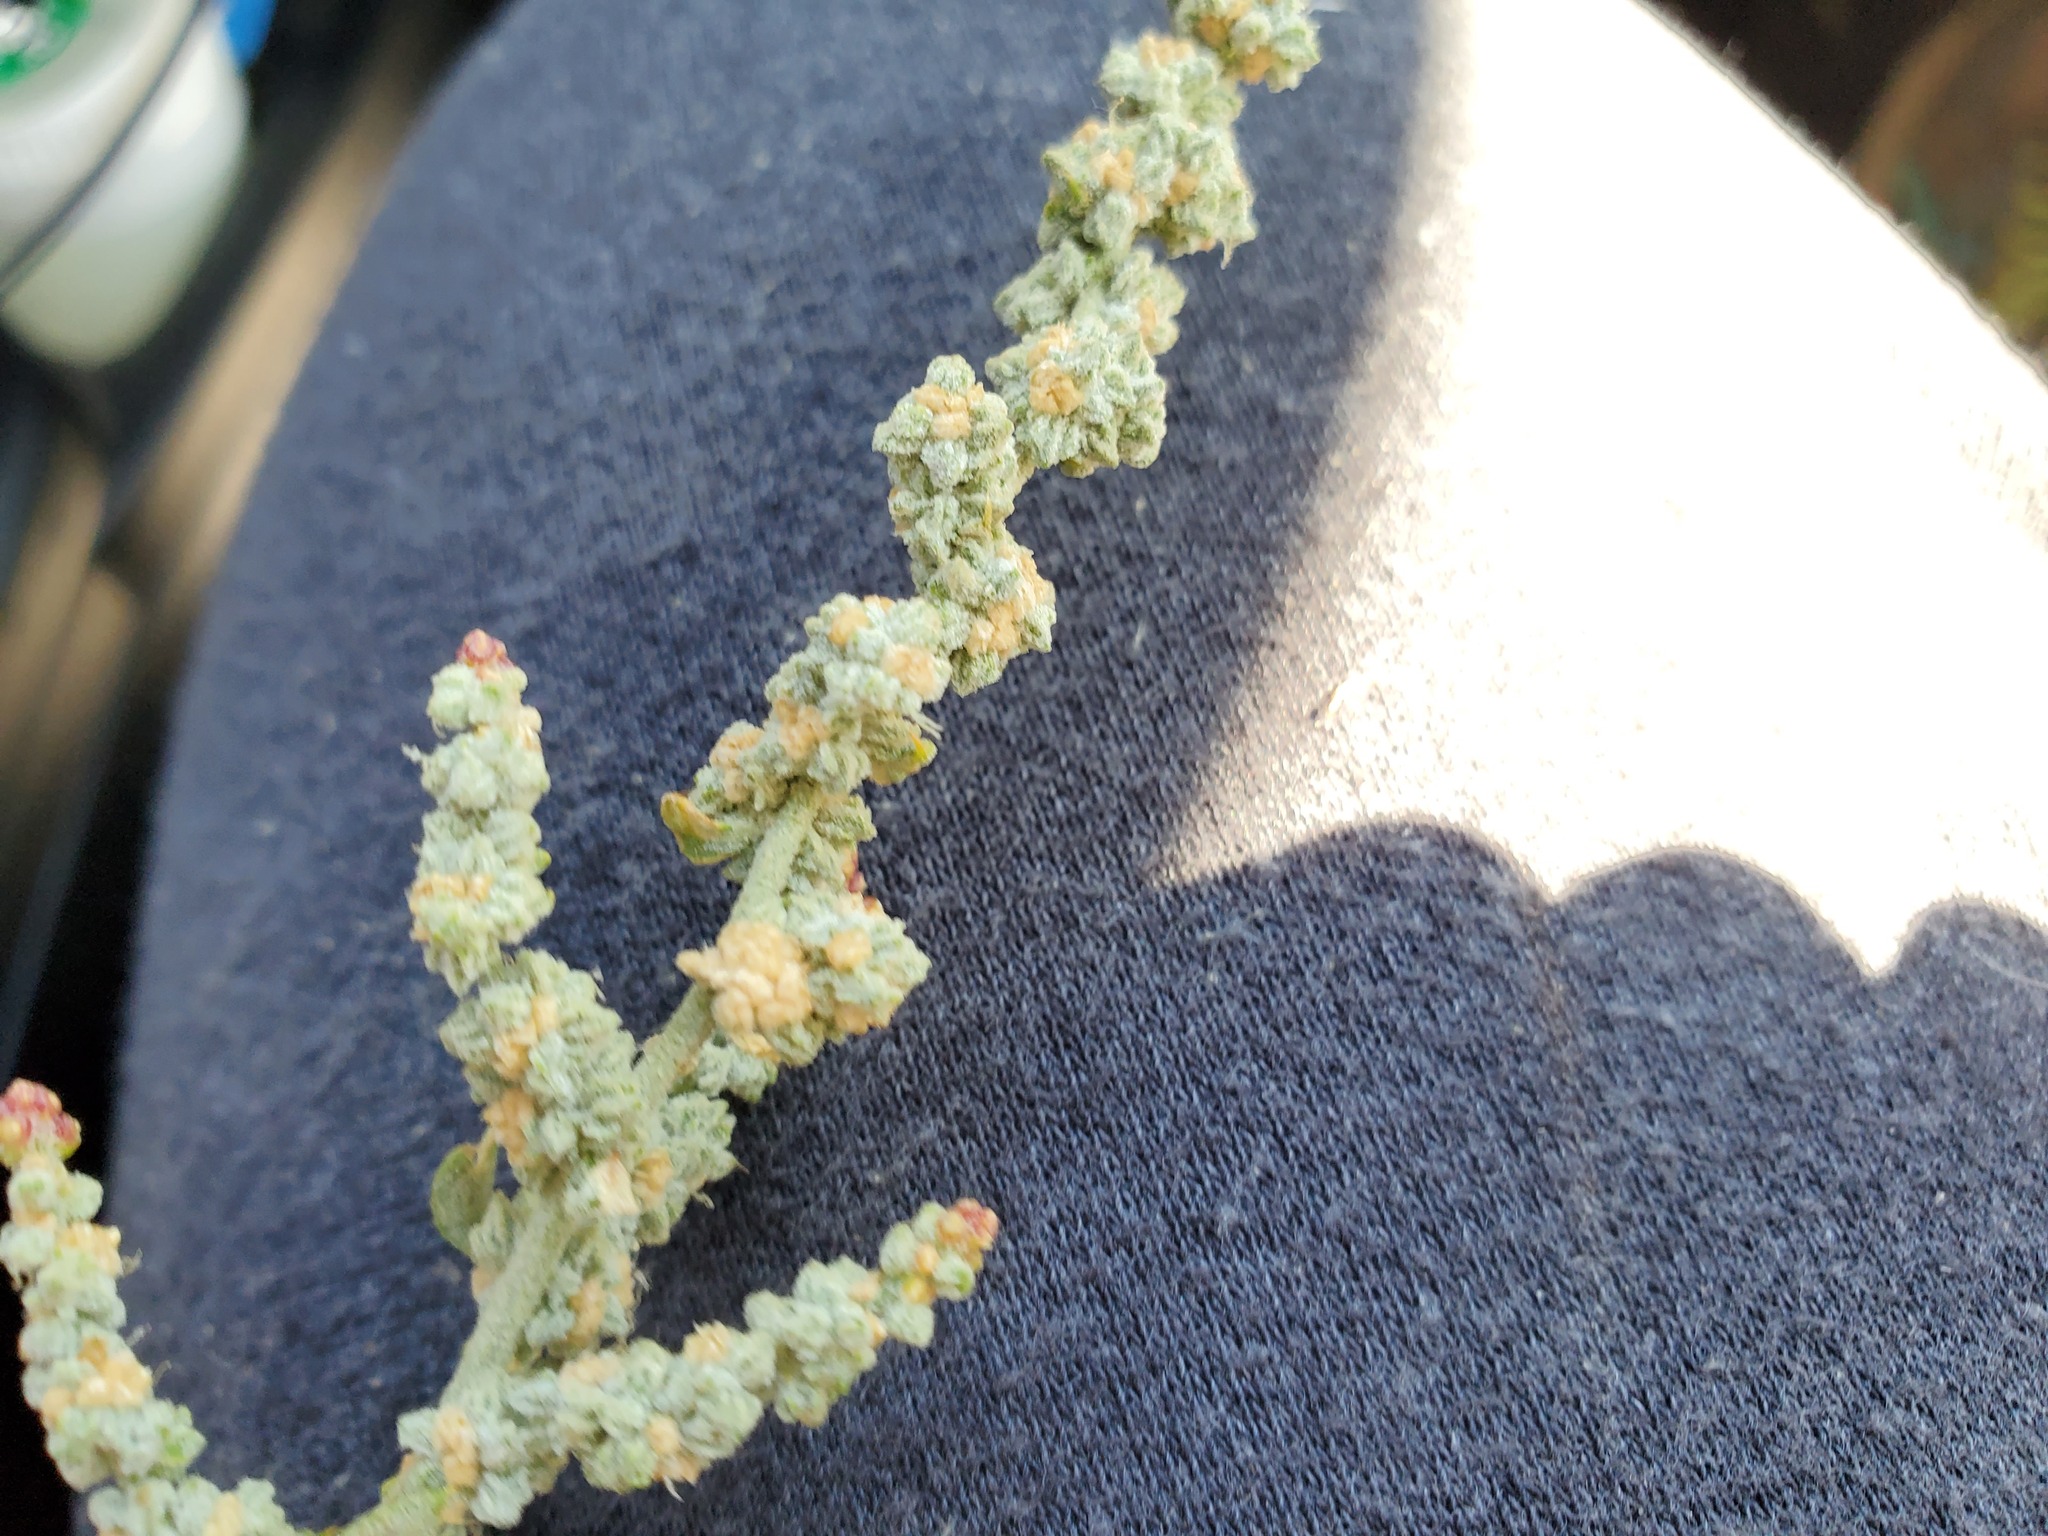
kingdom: Plantae
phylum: Tracheophyta
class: Magnoliopsida
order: Caryophyllales
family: Amaranthaceae
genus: Extriplex
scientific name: Extriplex joaquinana
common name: San joaquin saltbush
